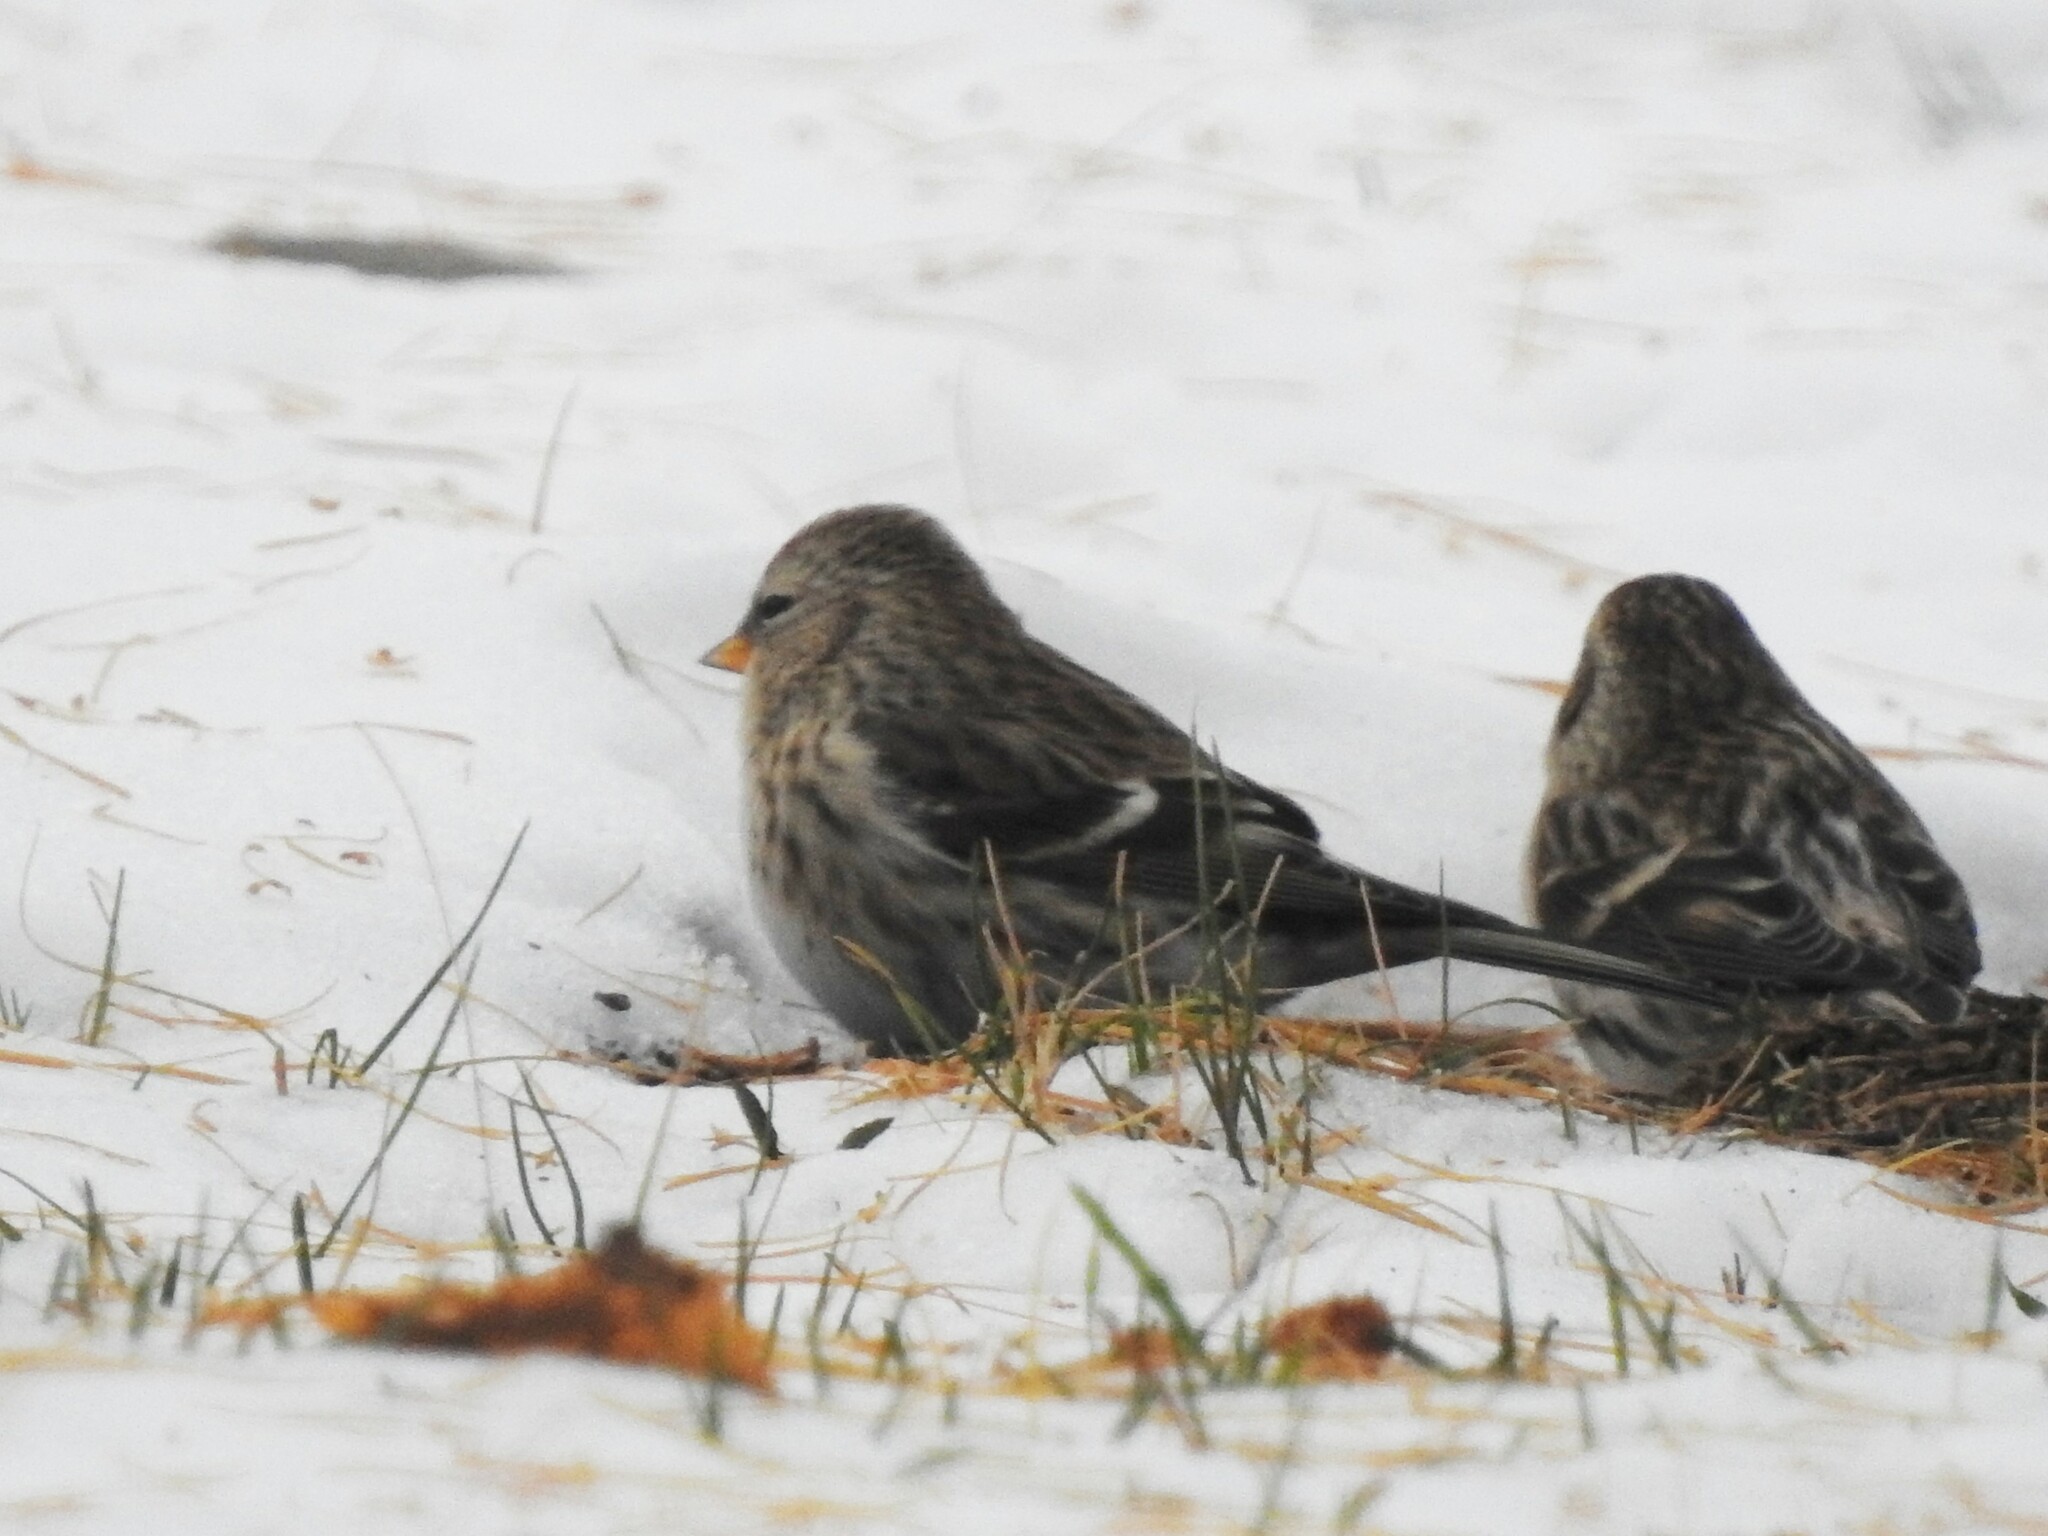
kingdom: Animalia
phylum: Chordata
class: Aves
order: Passeriformes
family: Fringillidae
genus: Acanthis
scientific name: Acanthis flammea
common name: Common redpoll
